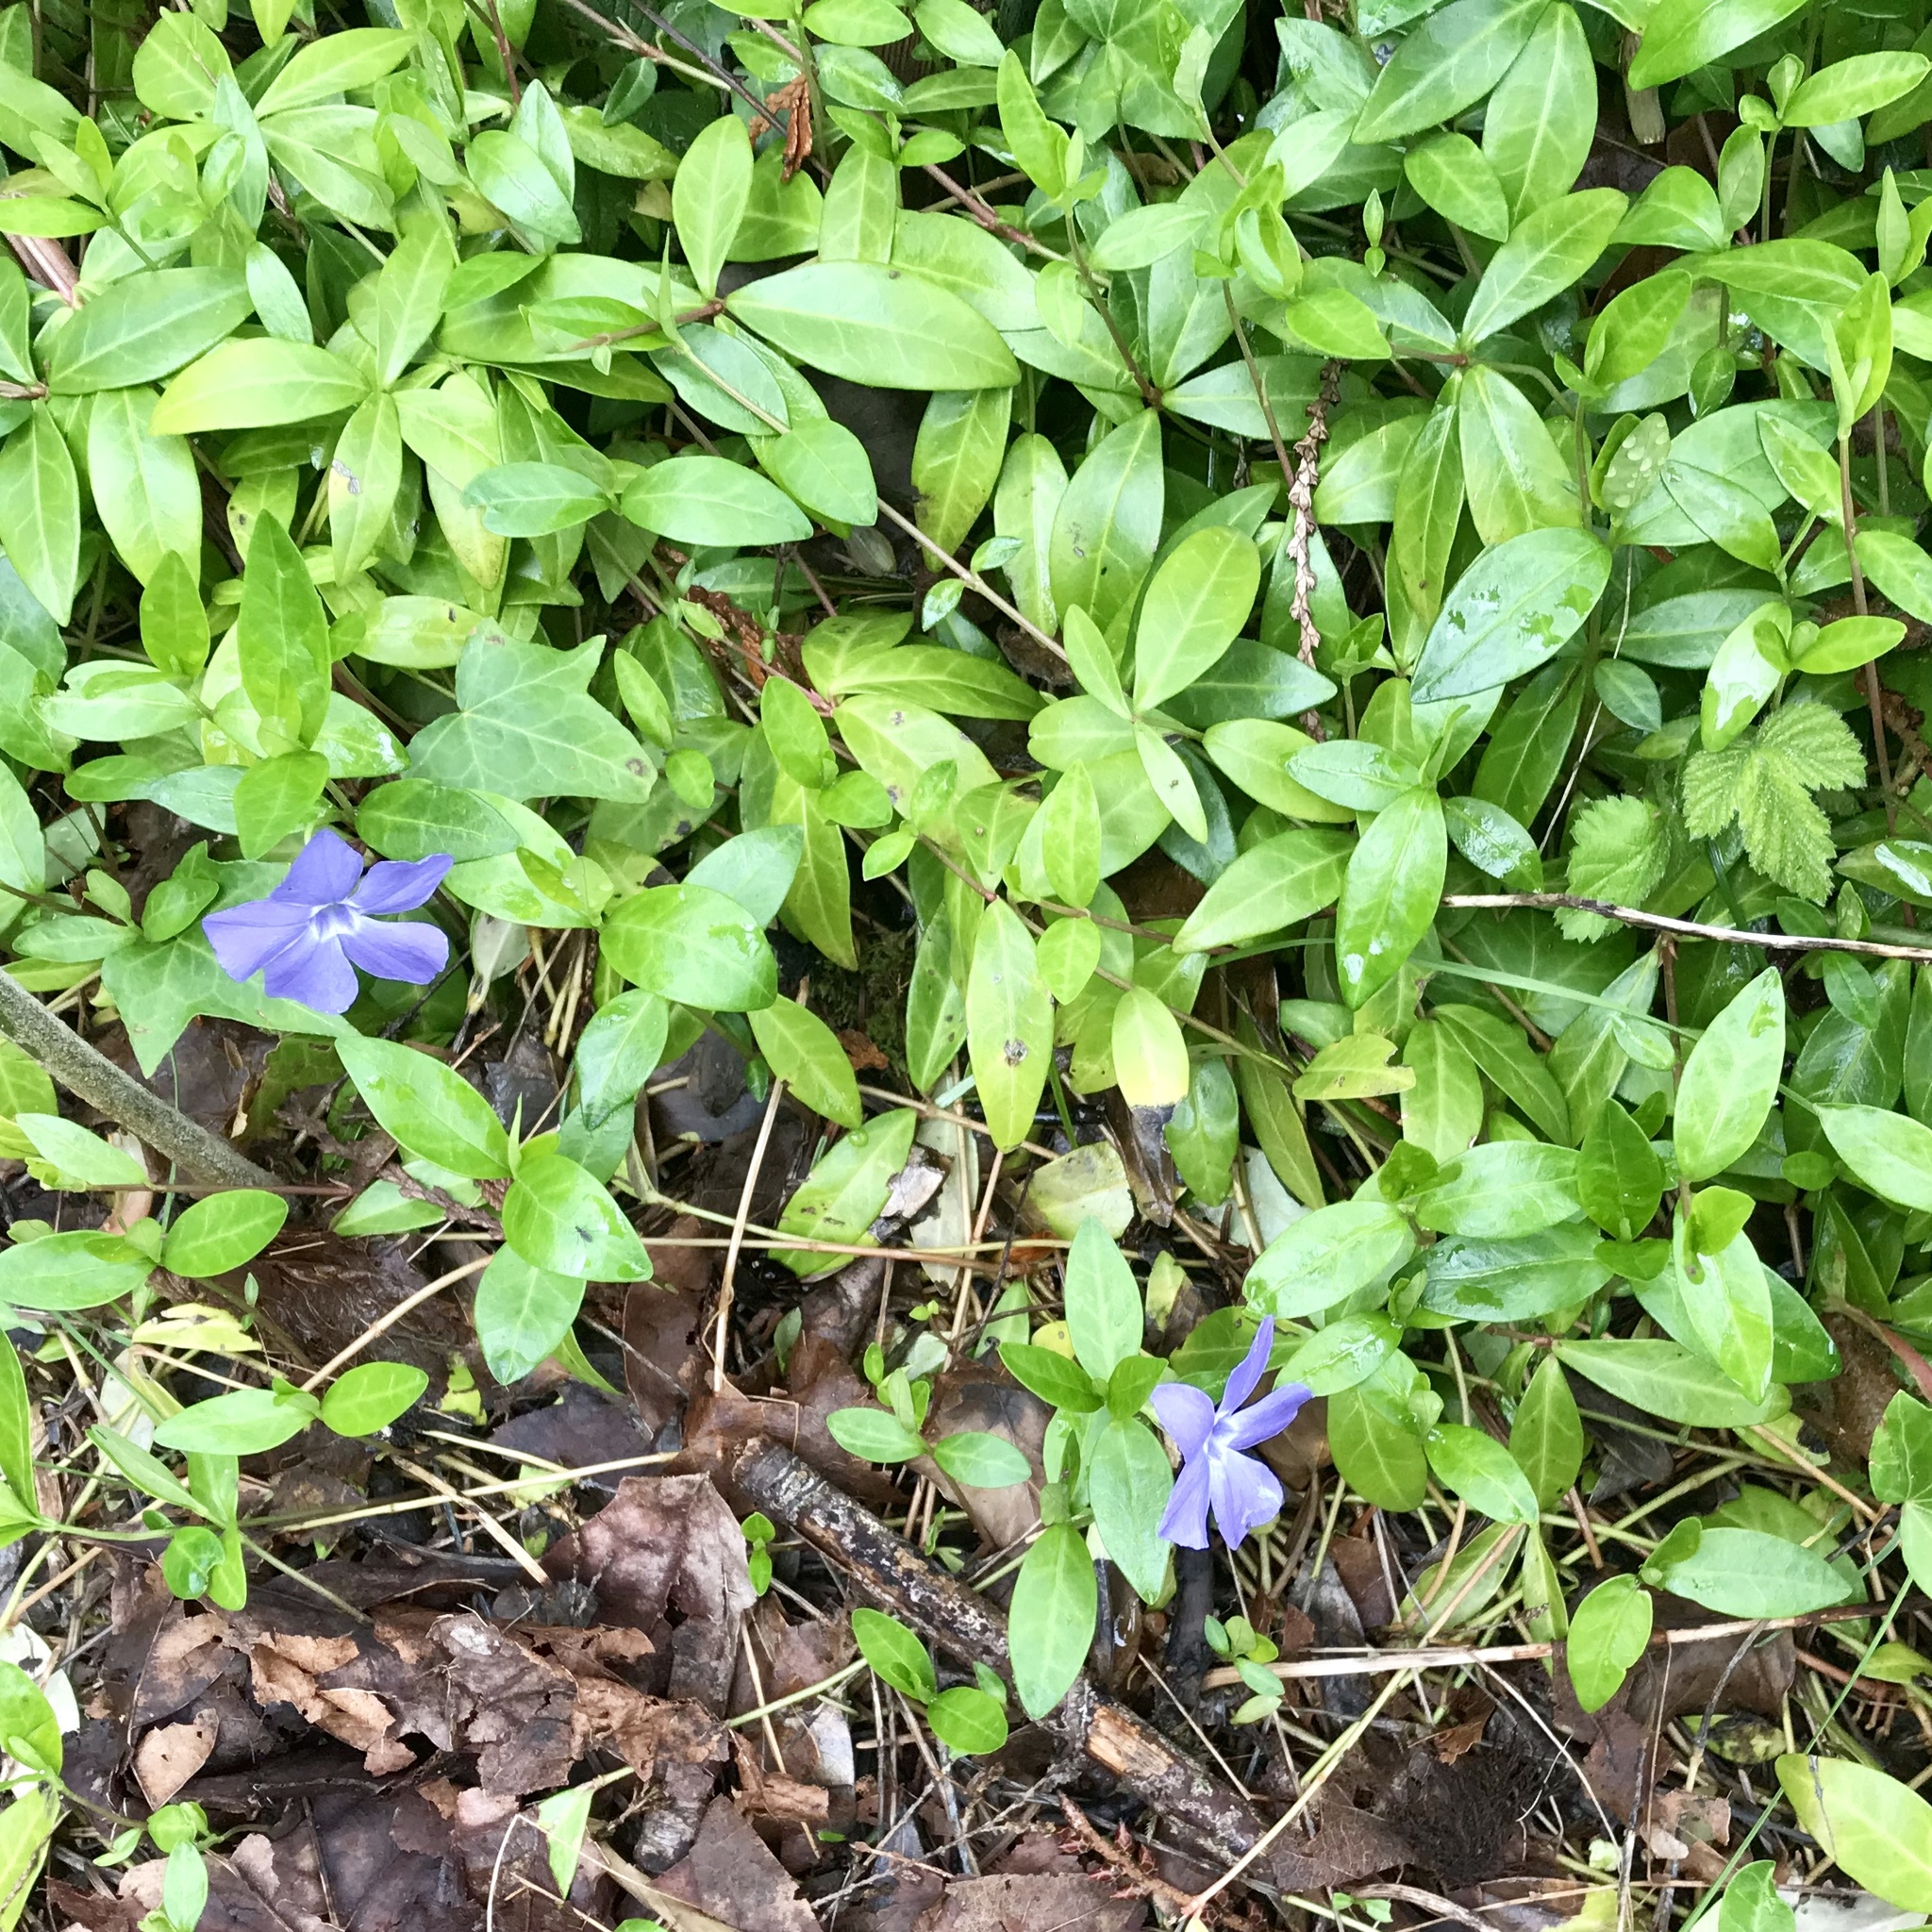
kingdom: Plantae
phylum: Tracheophyta
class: Magnoliopsida
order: Gentianales
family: Apocynaceae
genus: Vinca
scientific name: Vinca minor
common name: Lesser periwinkle
